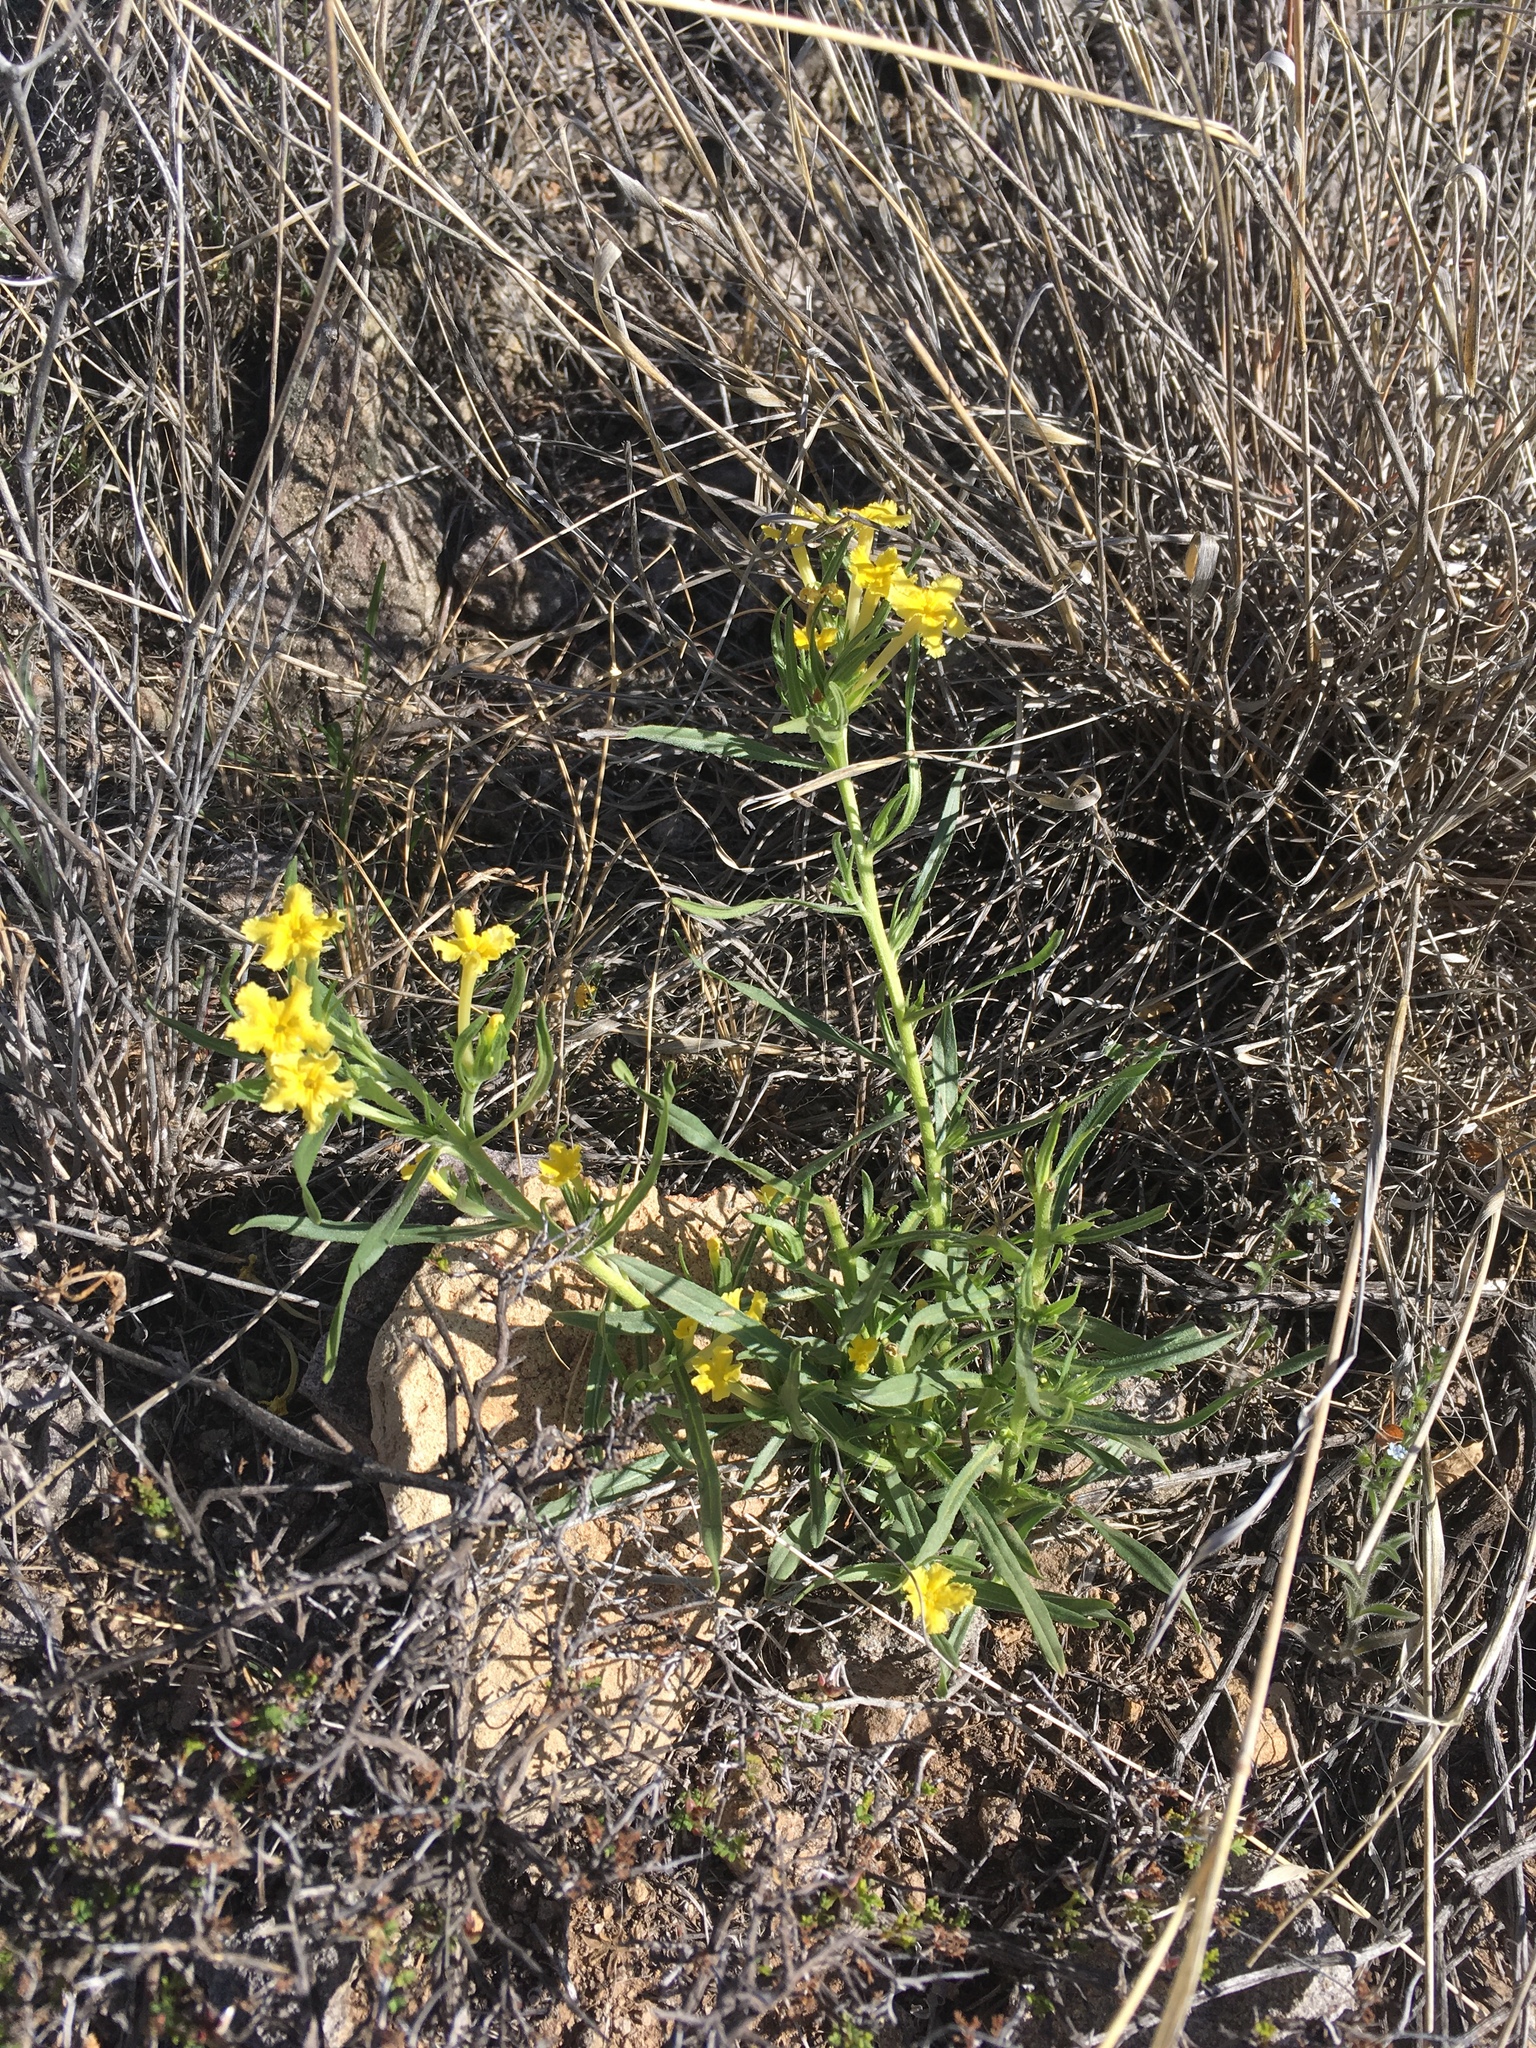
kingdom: Plantae
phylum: Tracheophyta
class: Magnoliopsida
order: Boraginales
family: Boraginaceae
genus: Lithospermum
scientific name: Lithospermum incisum
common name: Fringed gromwell
